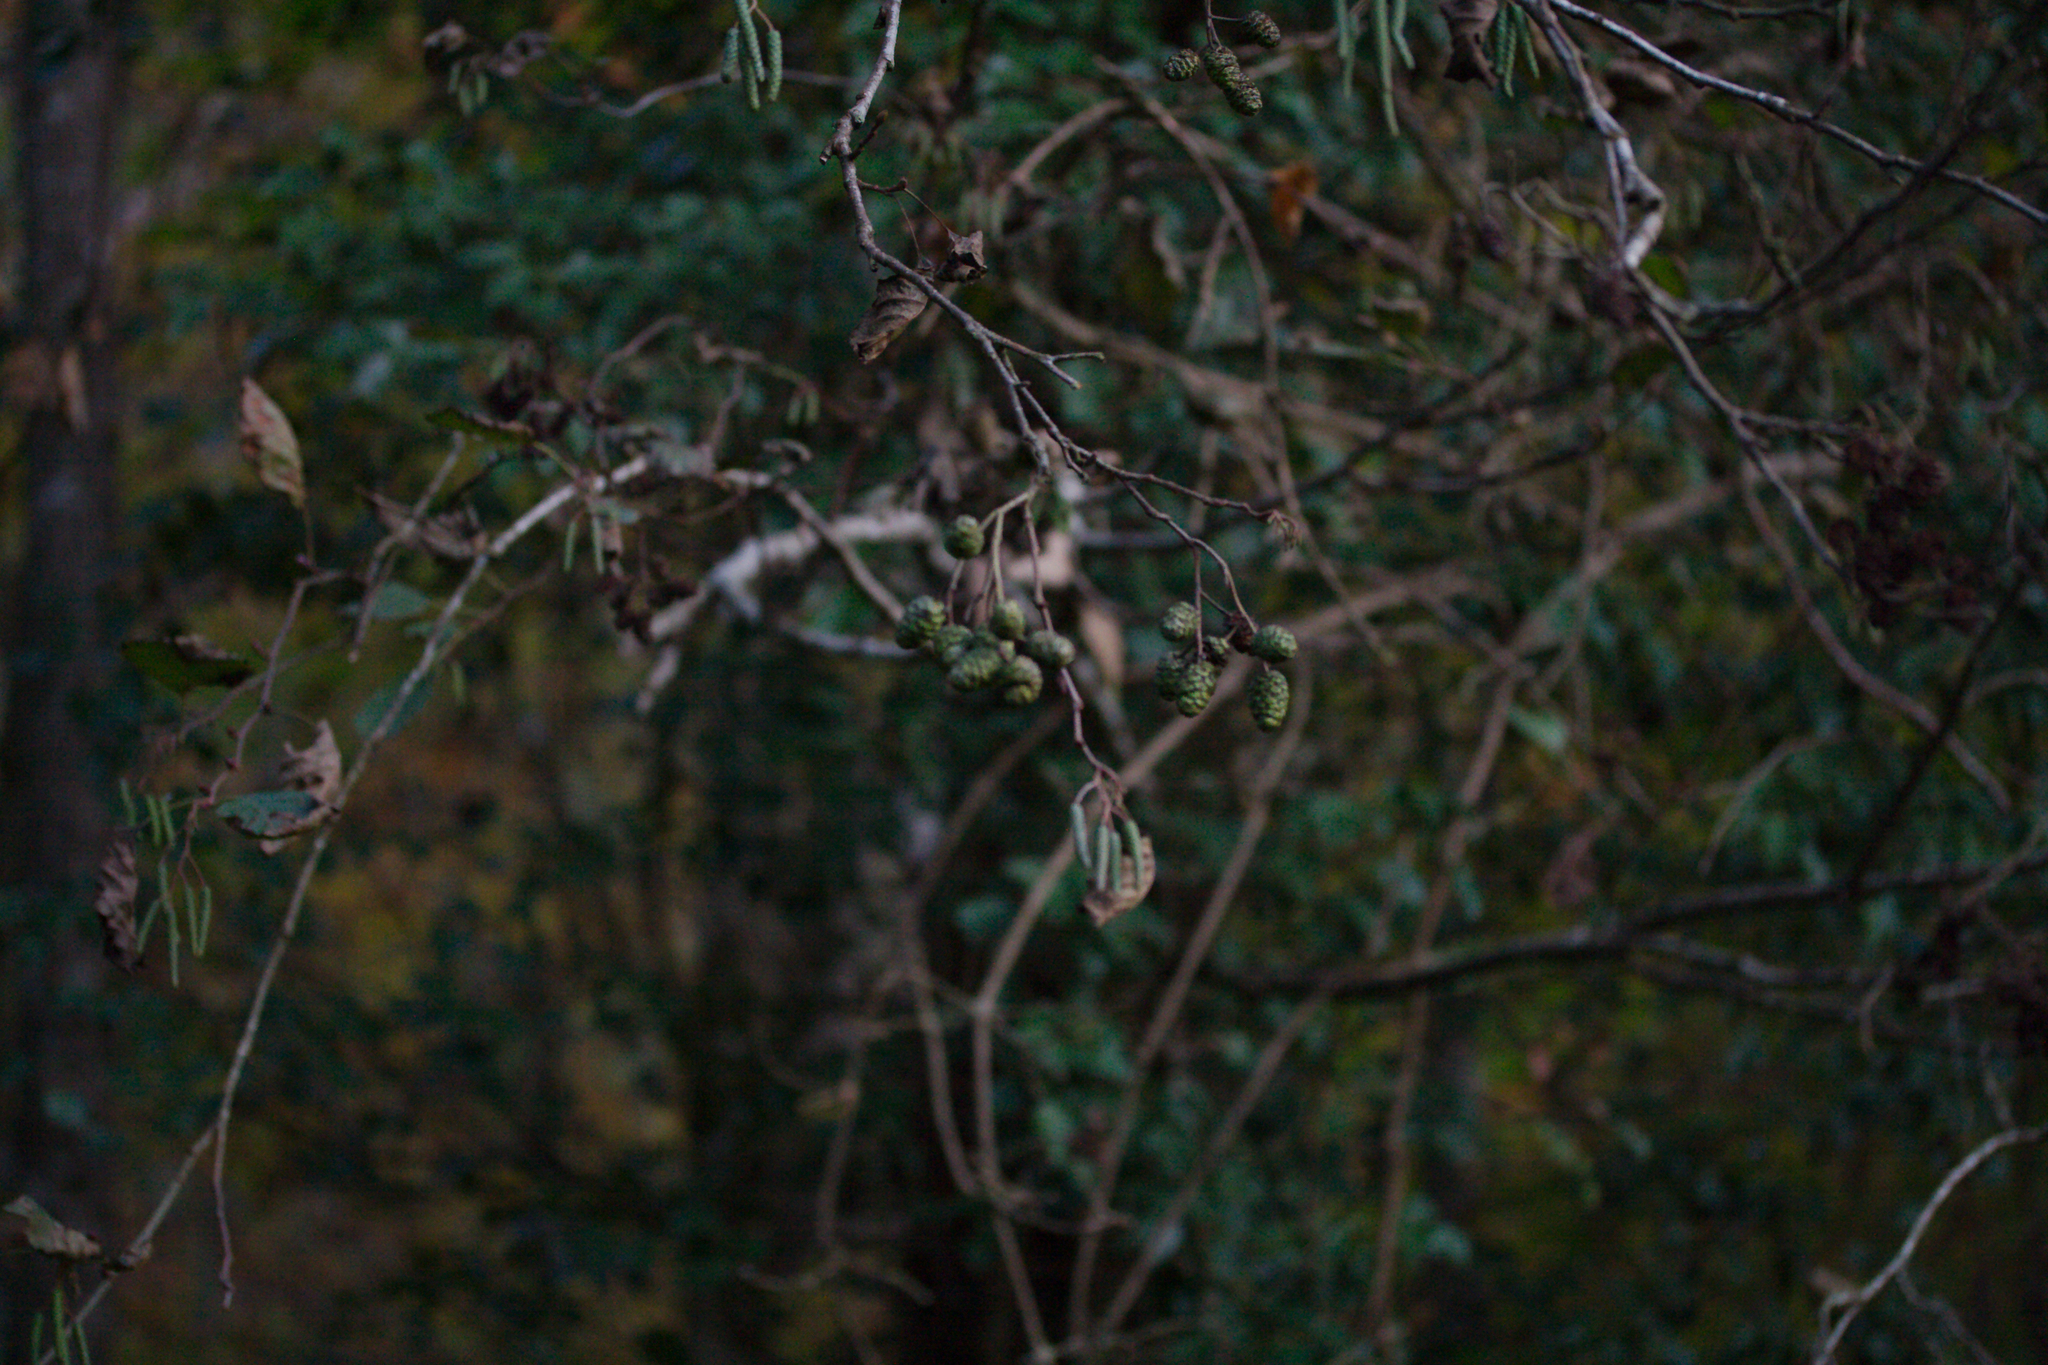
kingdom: Plantae
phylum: Tracheophyta
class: Magnoliopsida
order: Fagales
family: Betulaceae
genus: Alnus
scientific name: Alnus glutinosa
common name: Black alder
